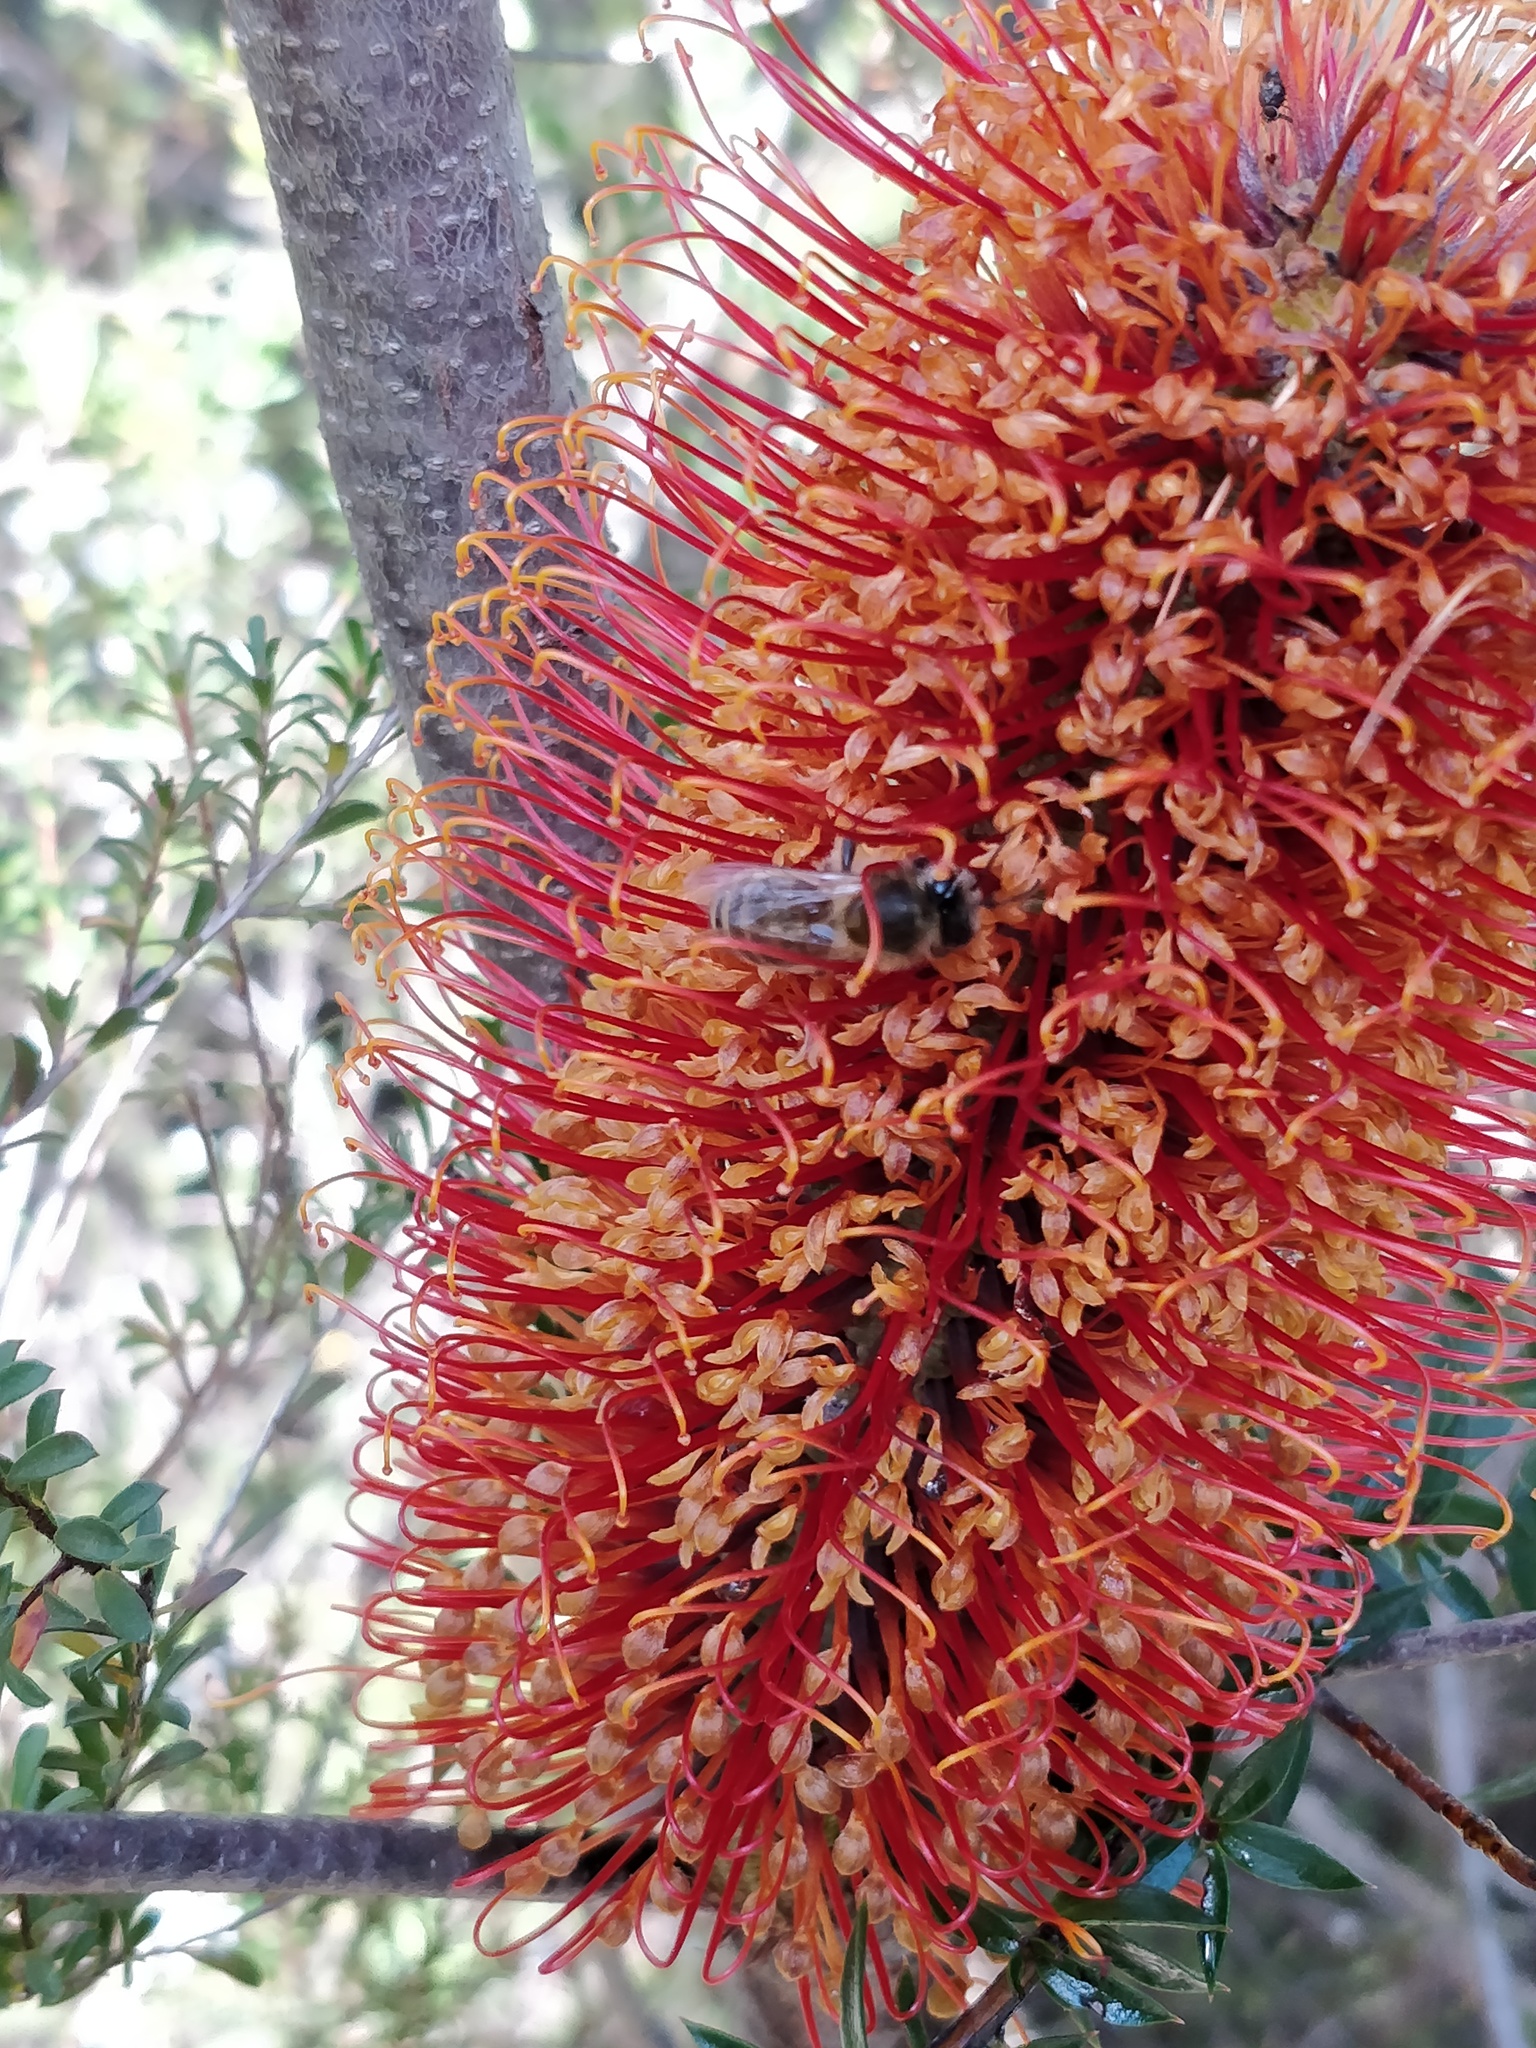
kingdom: Animalia
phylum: Arthropoda
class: Insecta
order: Hymenoptera
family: Apidae
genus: Apis
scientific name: Apis mellifera
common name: Honey bee
